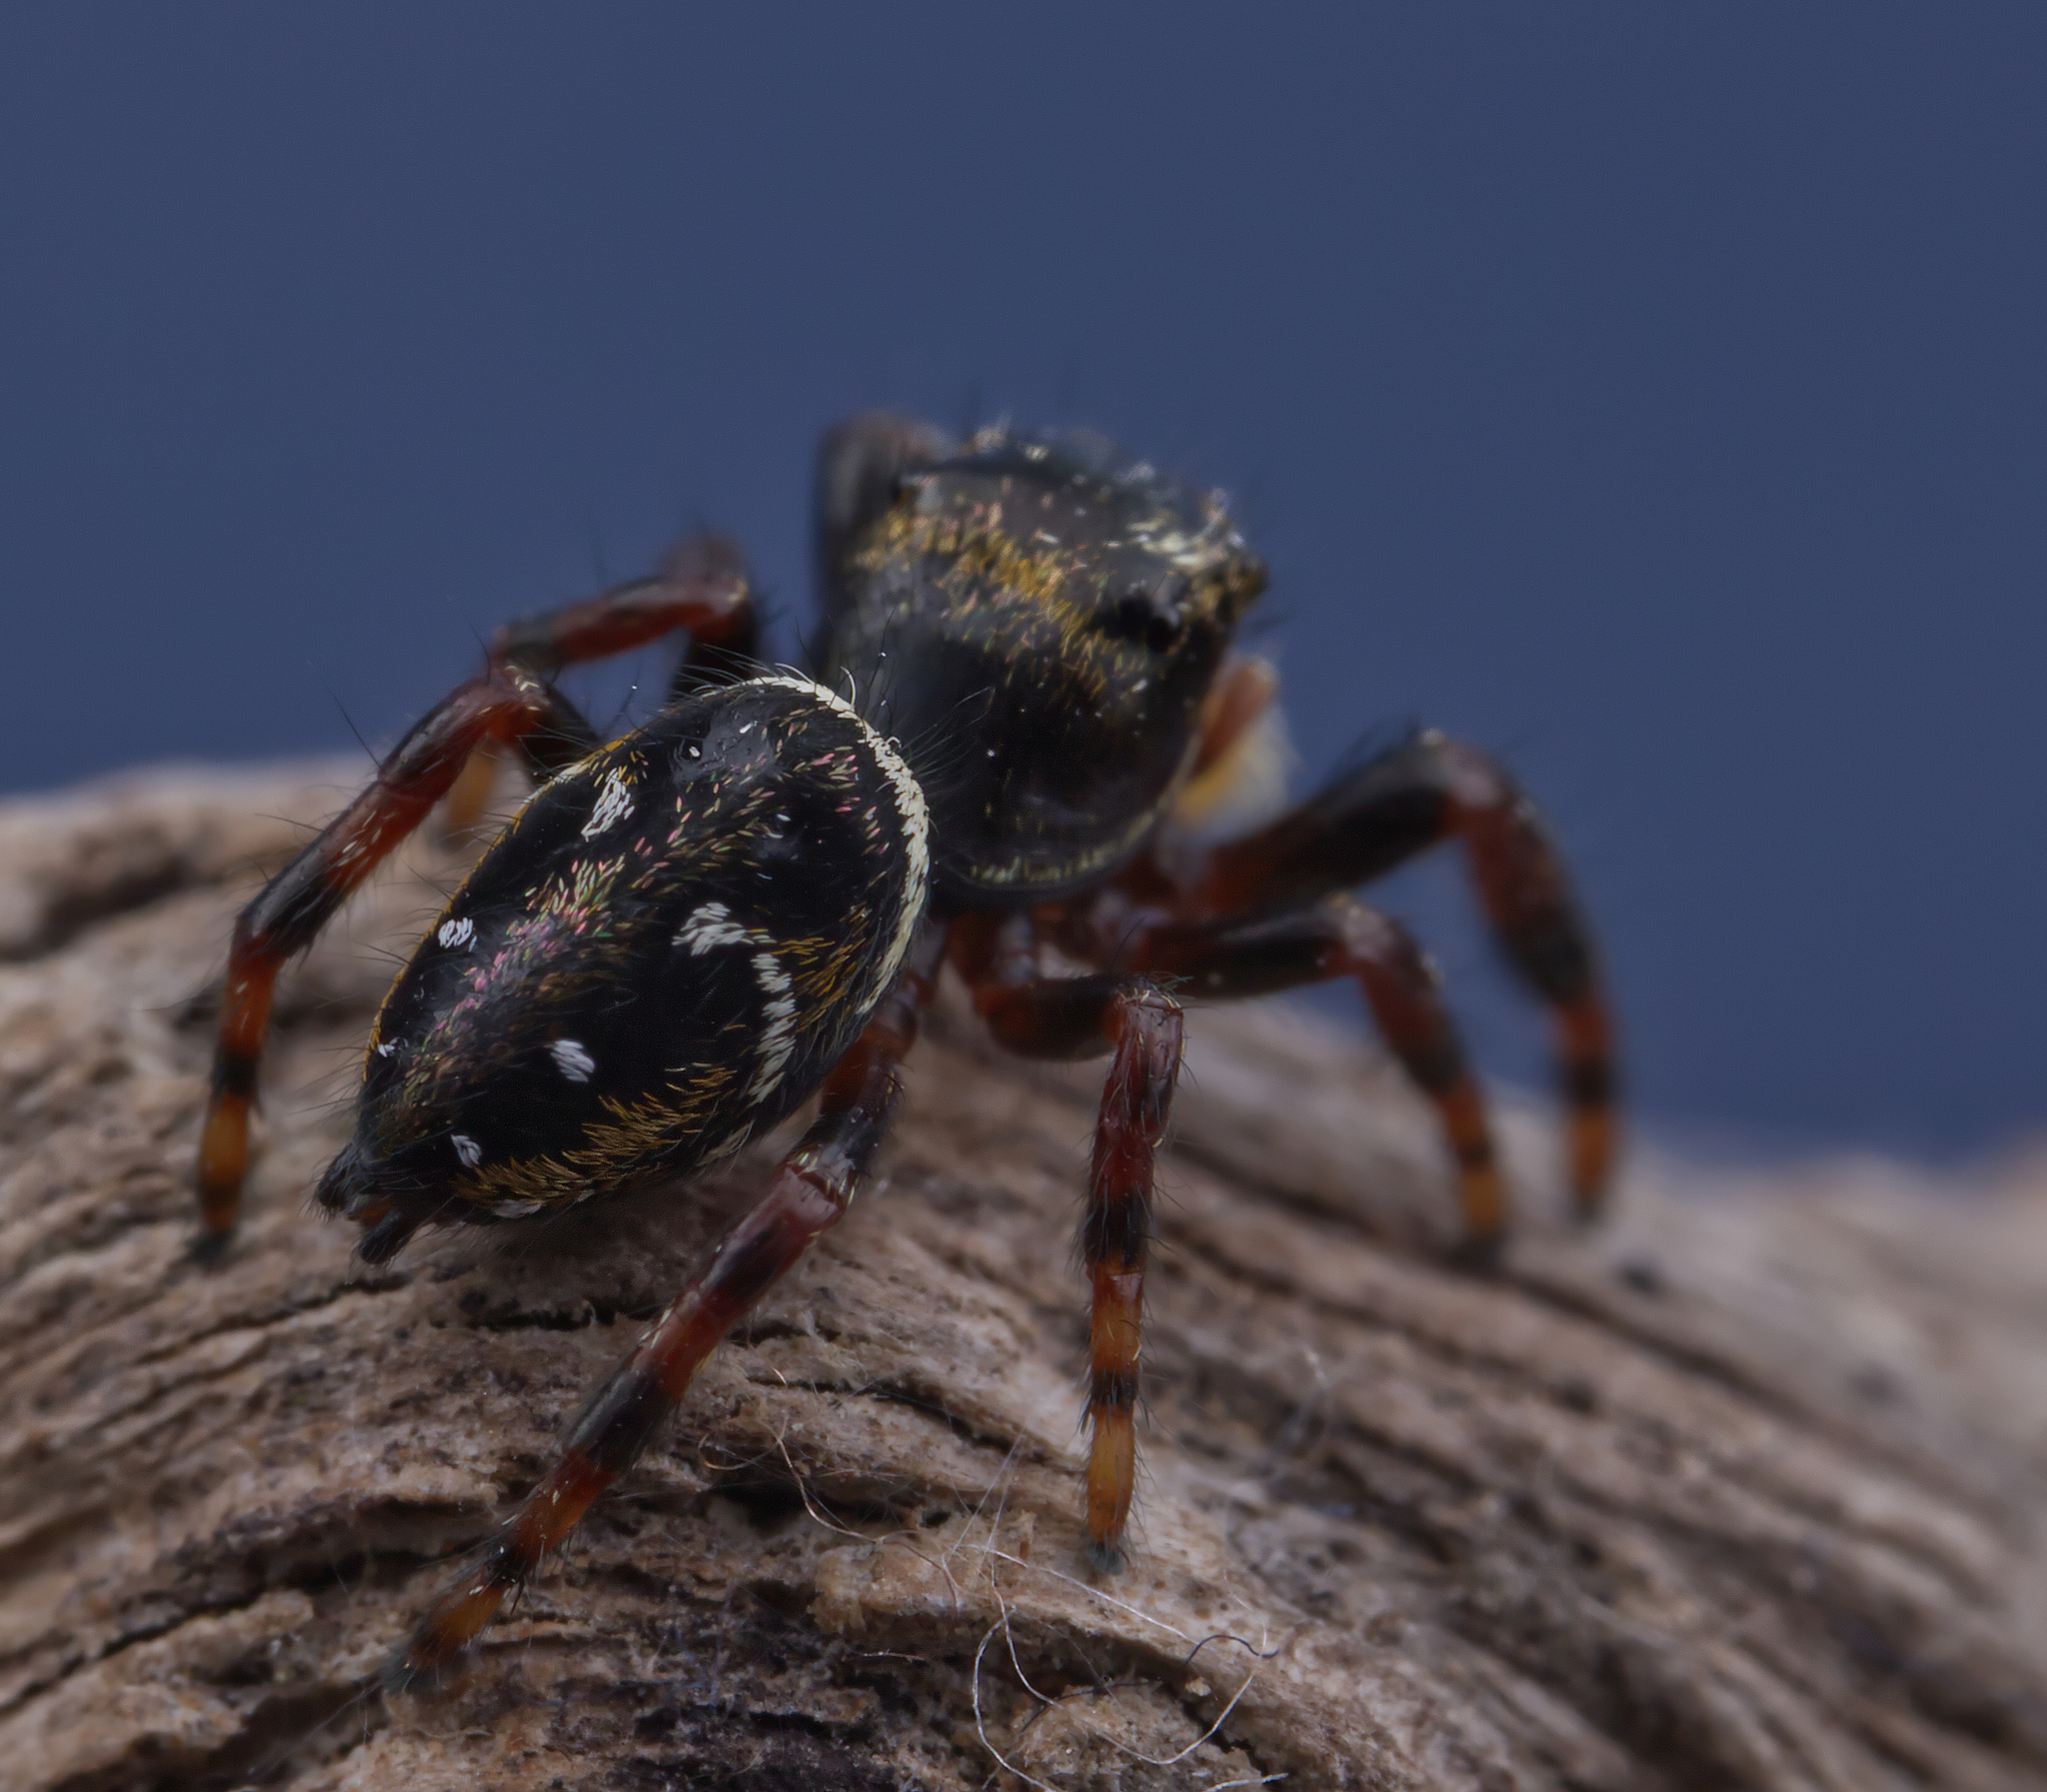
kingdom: Animalia
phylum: Arthropoda
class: Arachnida
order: Araneae
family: Salticidae
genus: Phidippus
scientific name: Phidippus clarus
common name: Brilliant jumping spider
